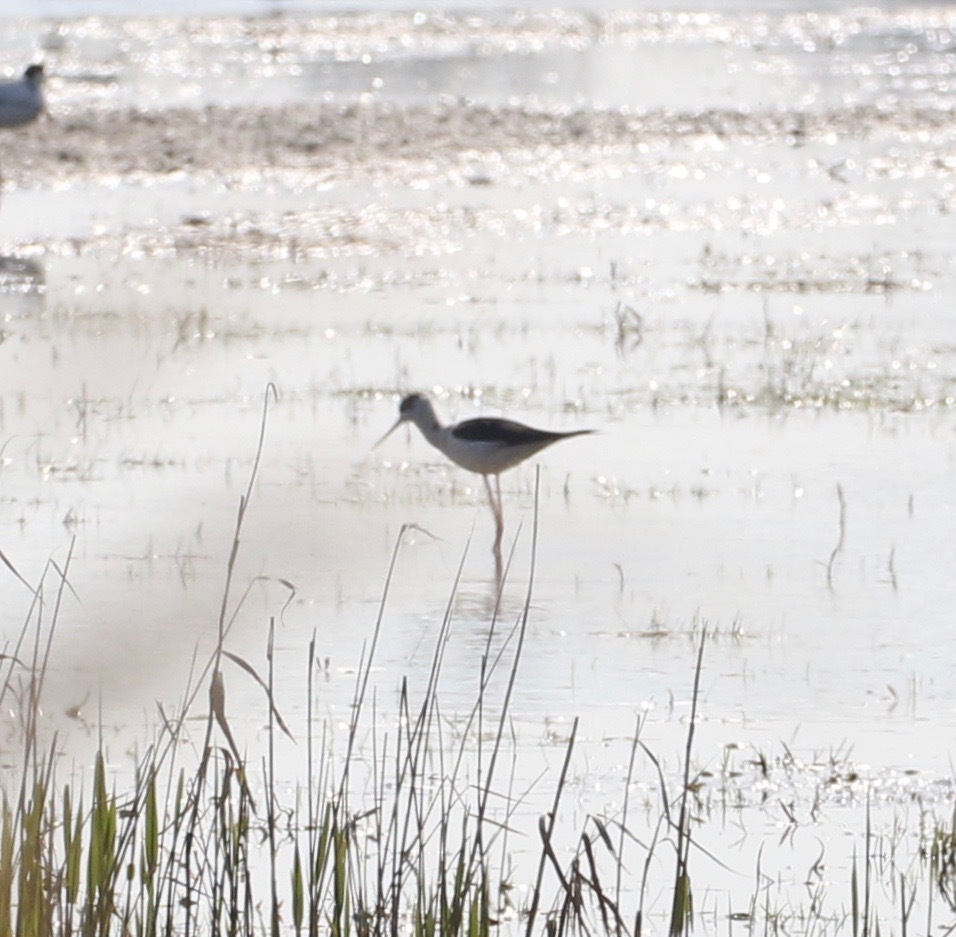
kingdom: Animalia
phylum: Chordata
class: Aves
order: Charadriiformes
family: Recurvirostridae
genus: Himantopus
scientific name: Himantopus himantopus
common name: Black-winged stilt
